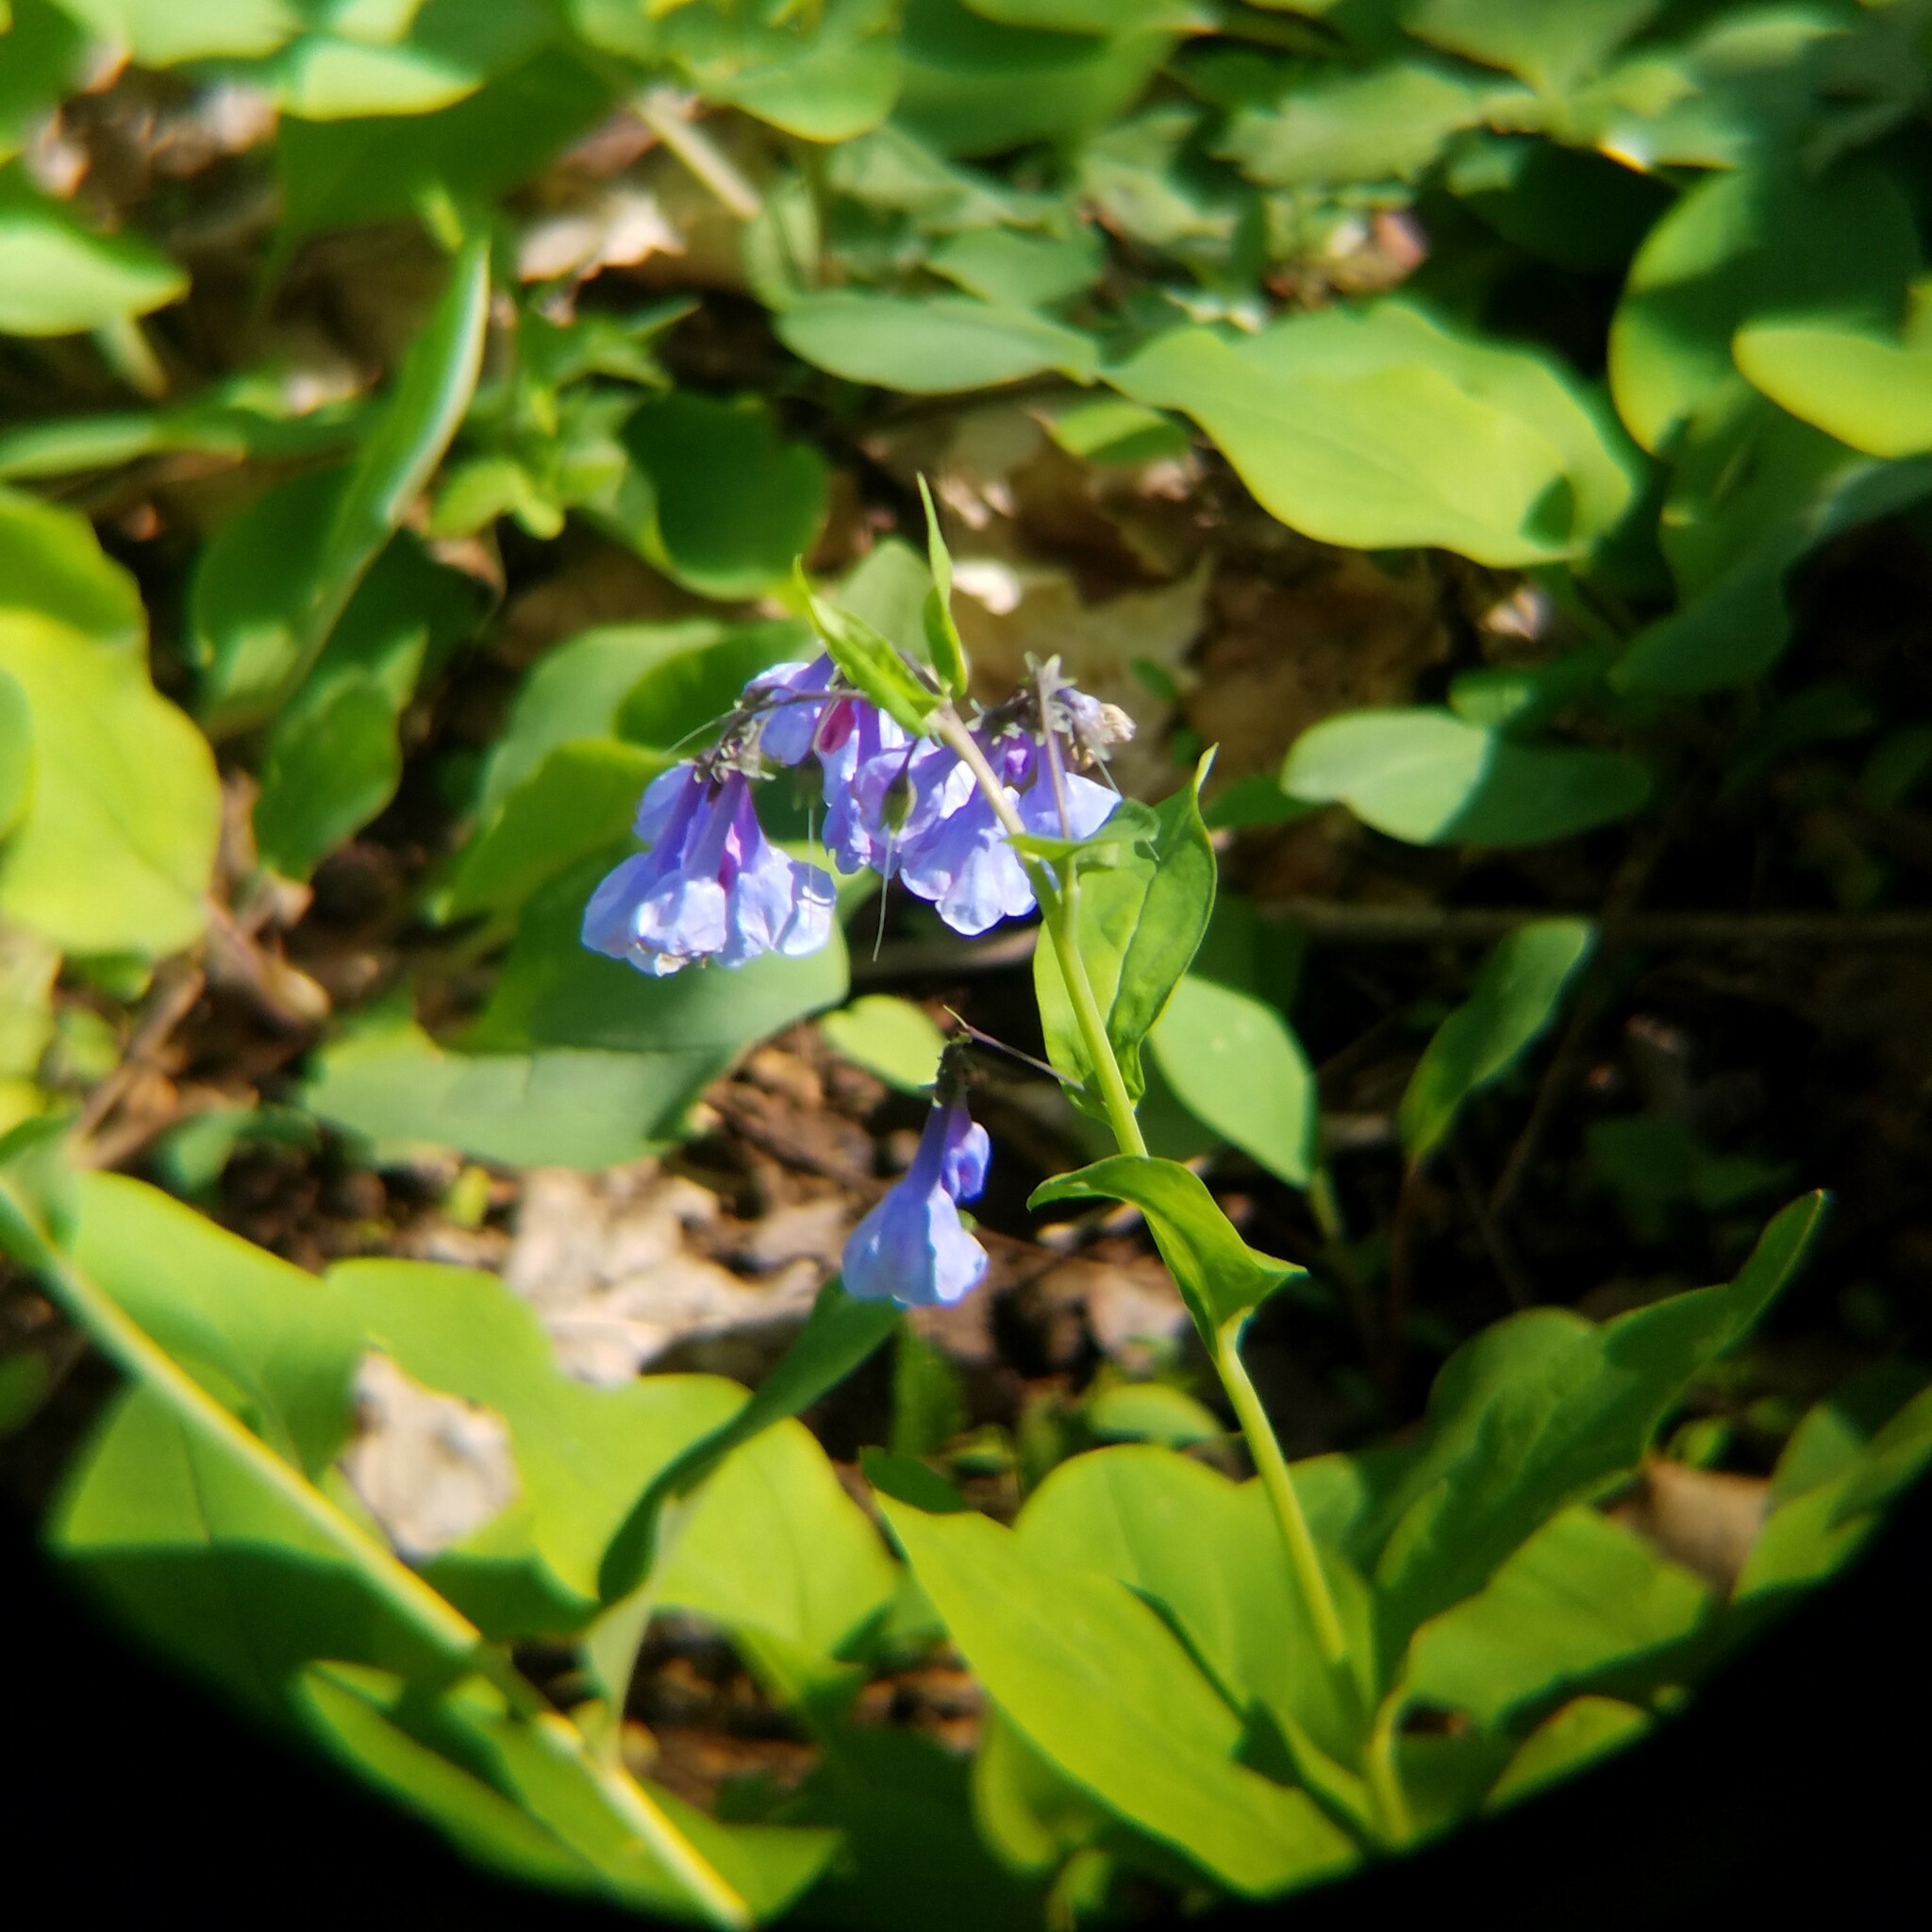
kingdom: Plantae
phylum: Tracheophyta
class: Magnoliopsida
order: Boraginales
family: Boraginaceae
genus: Mertensia
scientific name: Mertensia virginica
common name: Virginia bluebells
